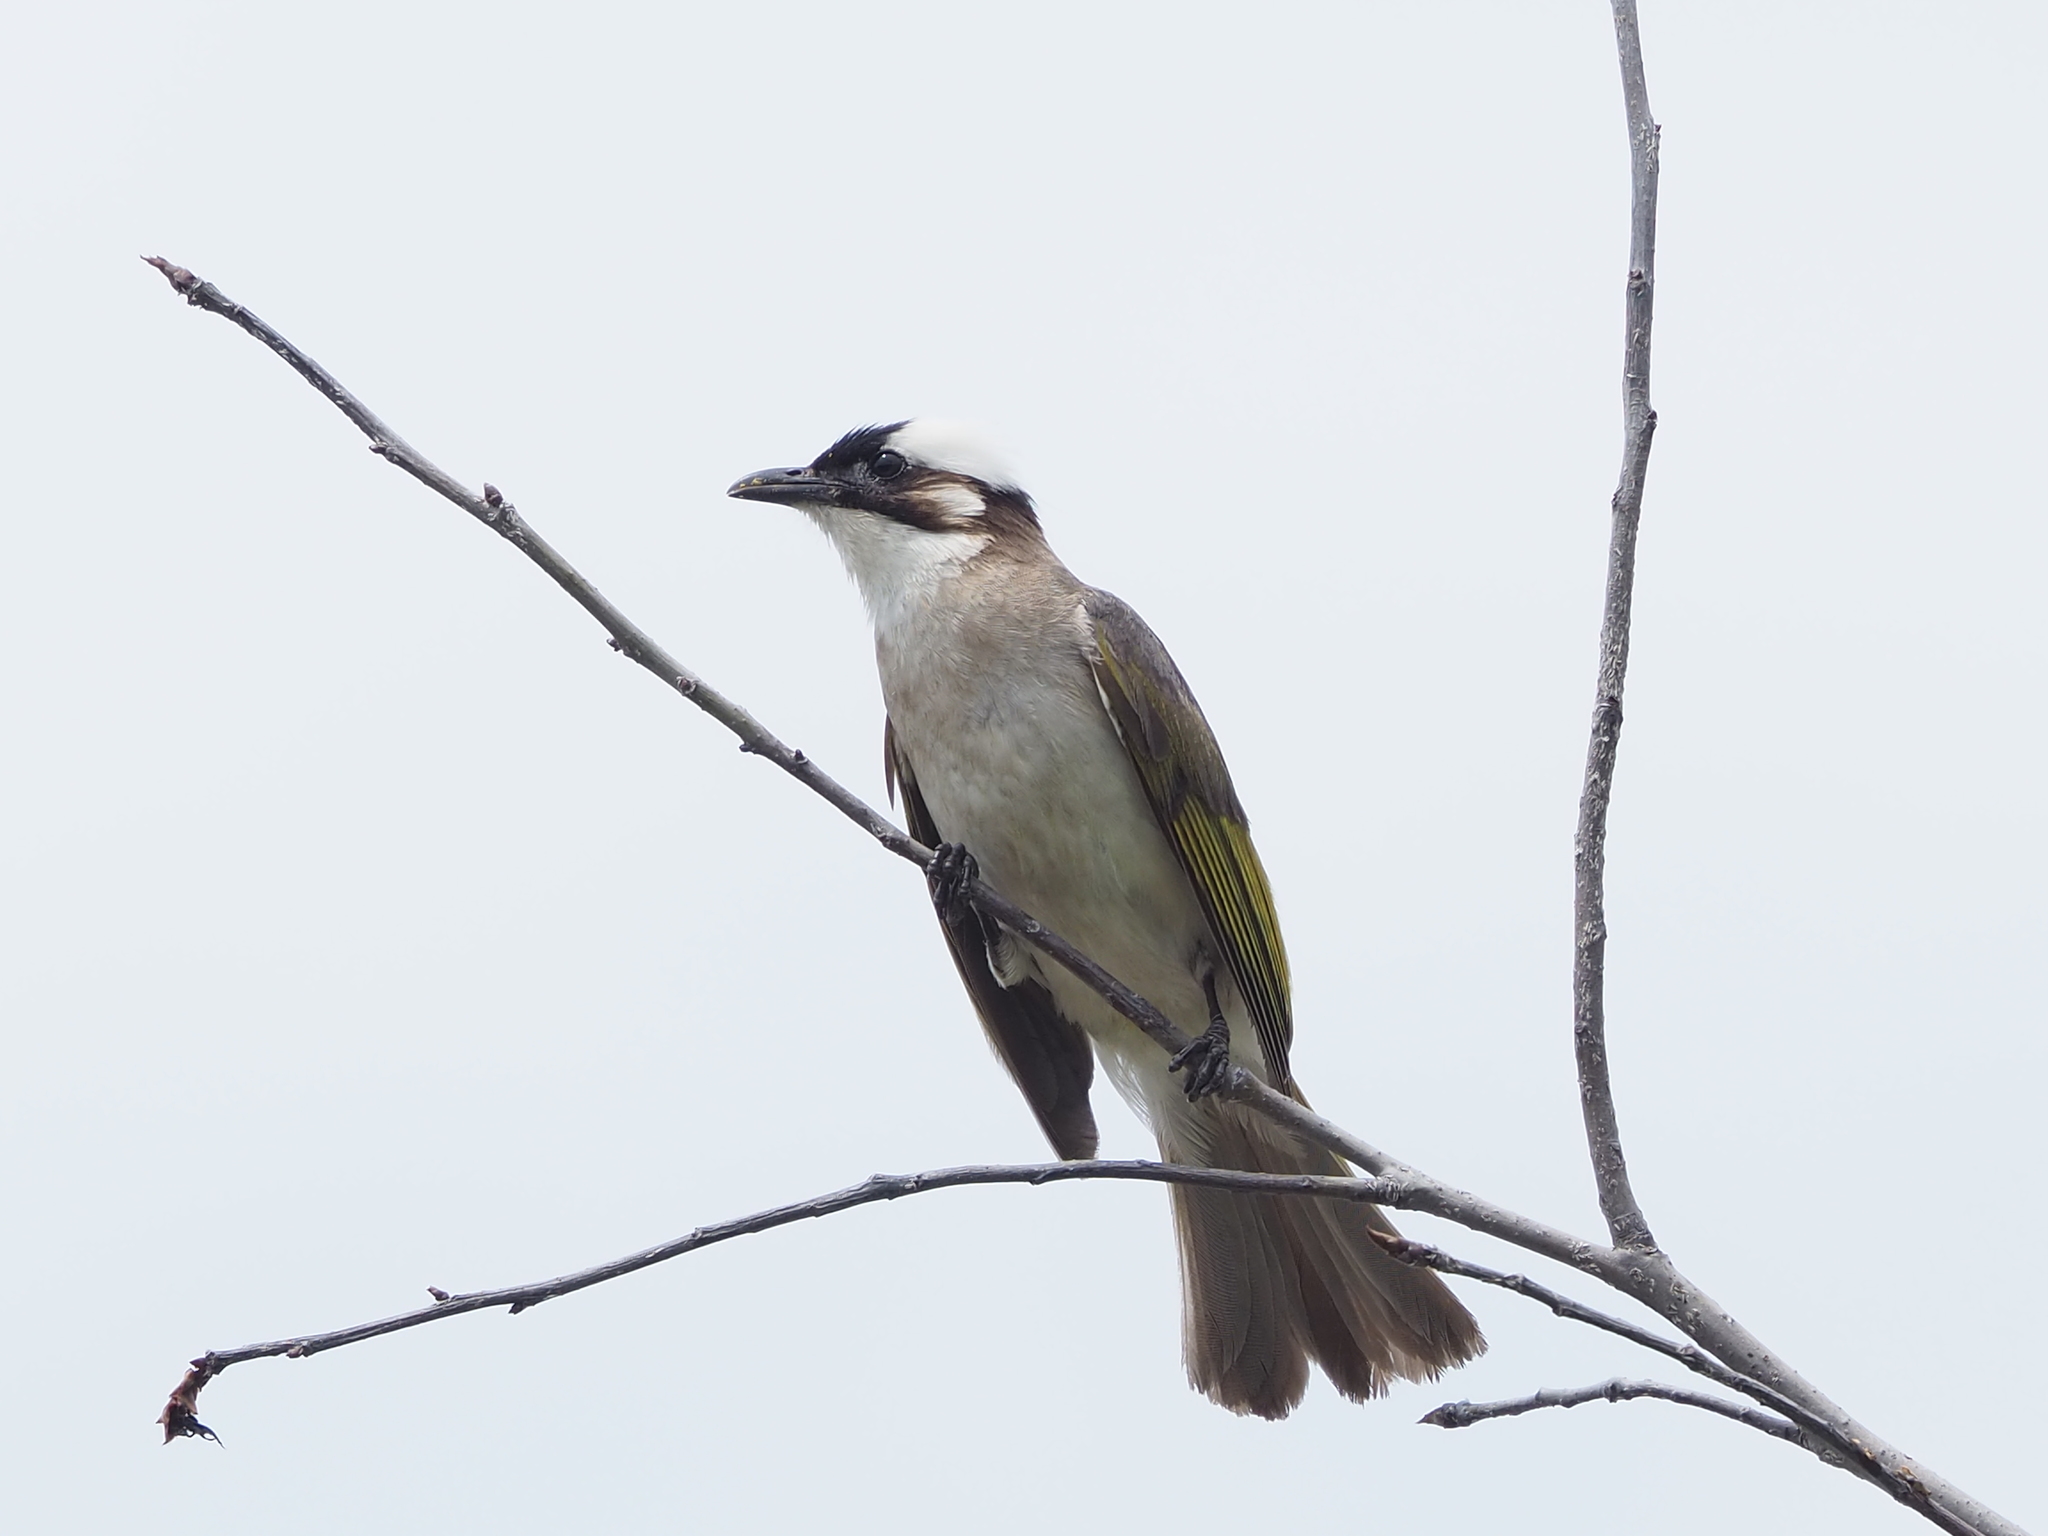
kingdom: Animalia
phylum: Chordata
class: Aves
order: Passeriformes
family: Pycnonotidae
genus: Pycnonotus
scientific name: Pycnonotus sinensis
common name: Light-vented bulbul
